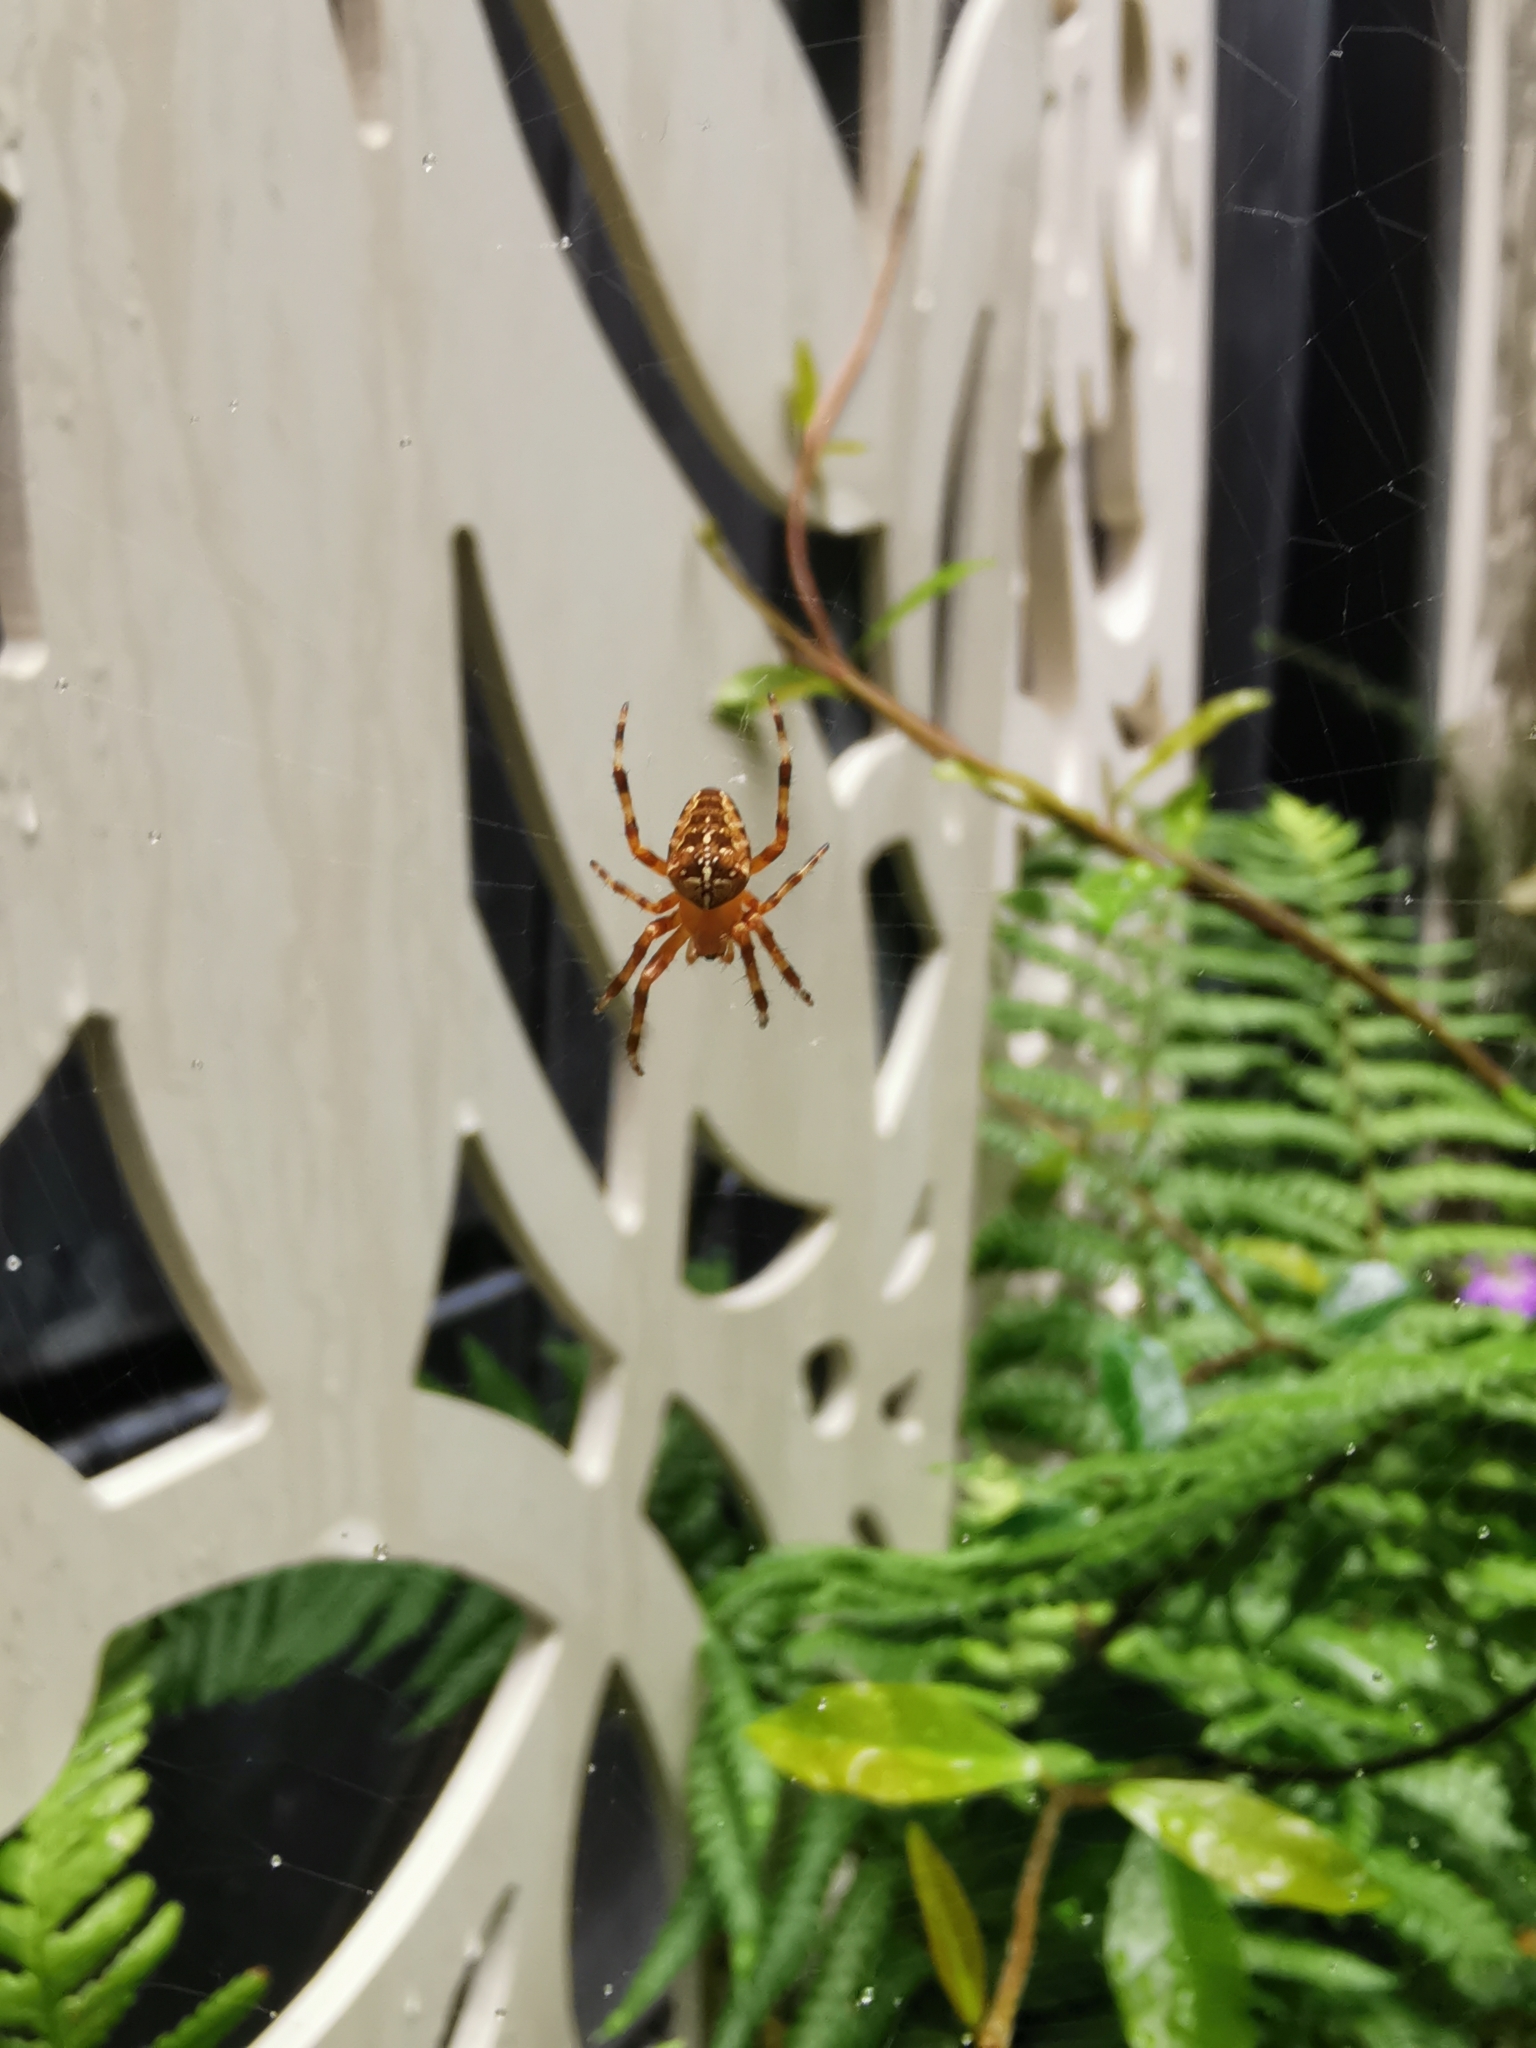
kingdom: Animalia
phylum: Arthropoda
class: Arachnida
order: Araneae
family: Araneidae
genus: Araneus
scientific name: Araneus diadematus
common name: Cross orbweaver
